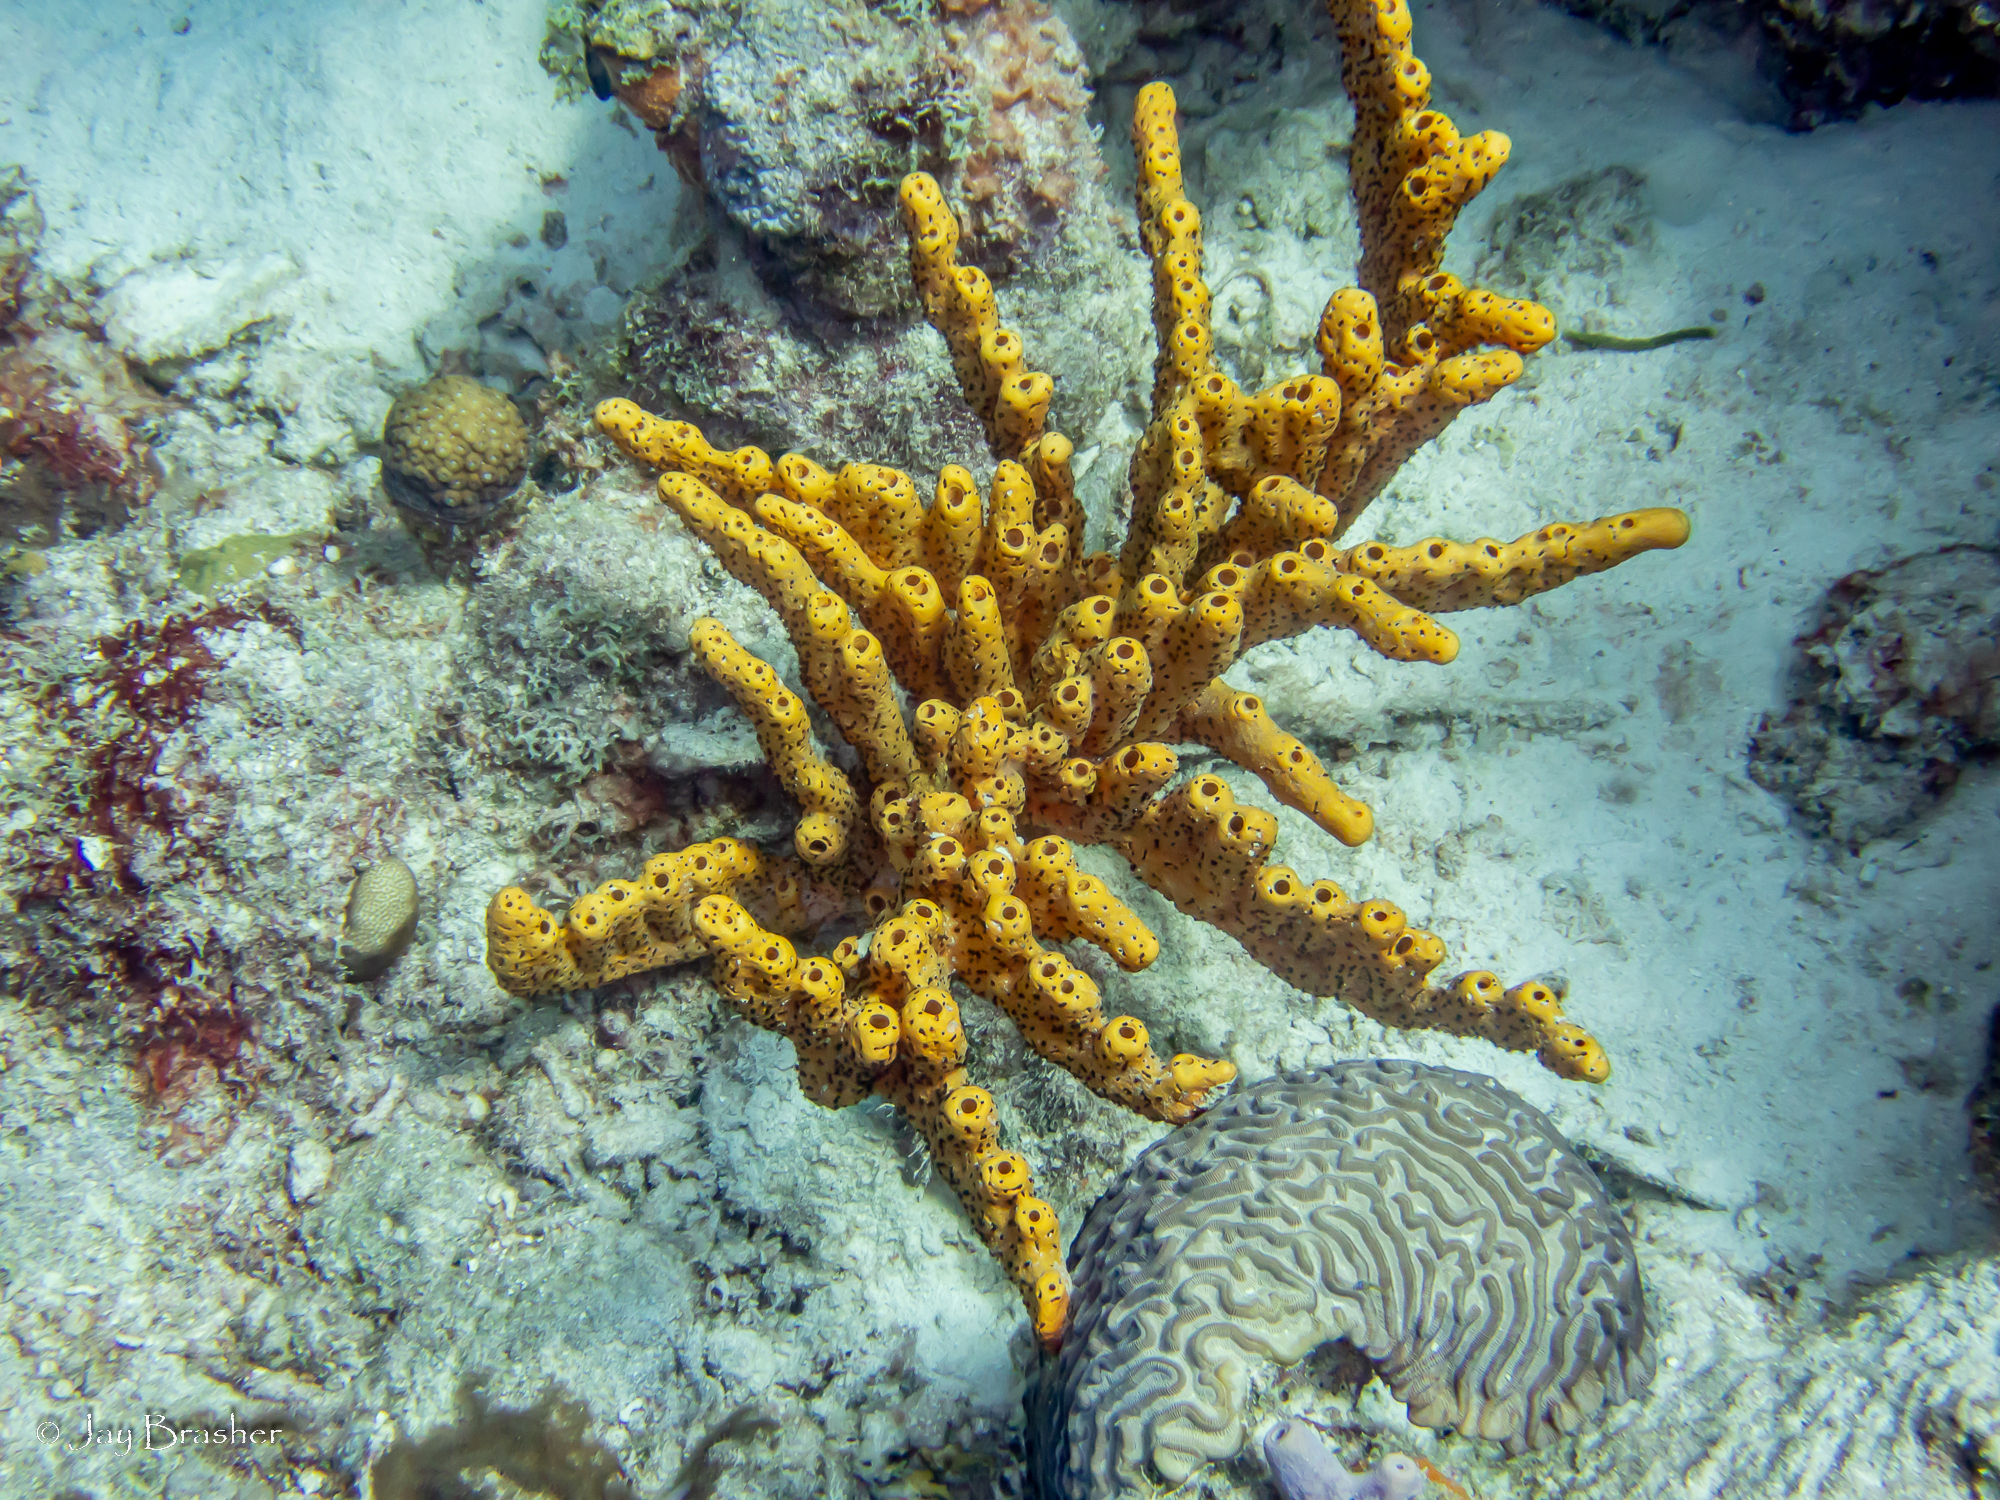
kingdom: Animalia
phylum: Cnidaria
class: Anthozoa
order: Zoantharia
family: Parazoanthidae
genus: Bergia
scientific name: Bergia puertoricense
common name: Maroon sponge zoanthid
